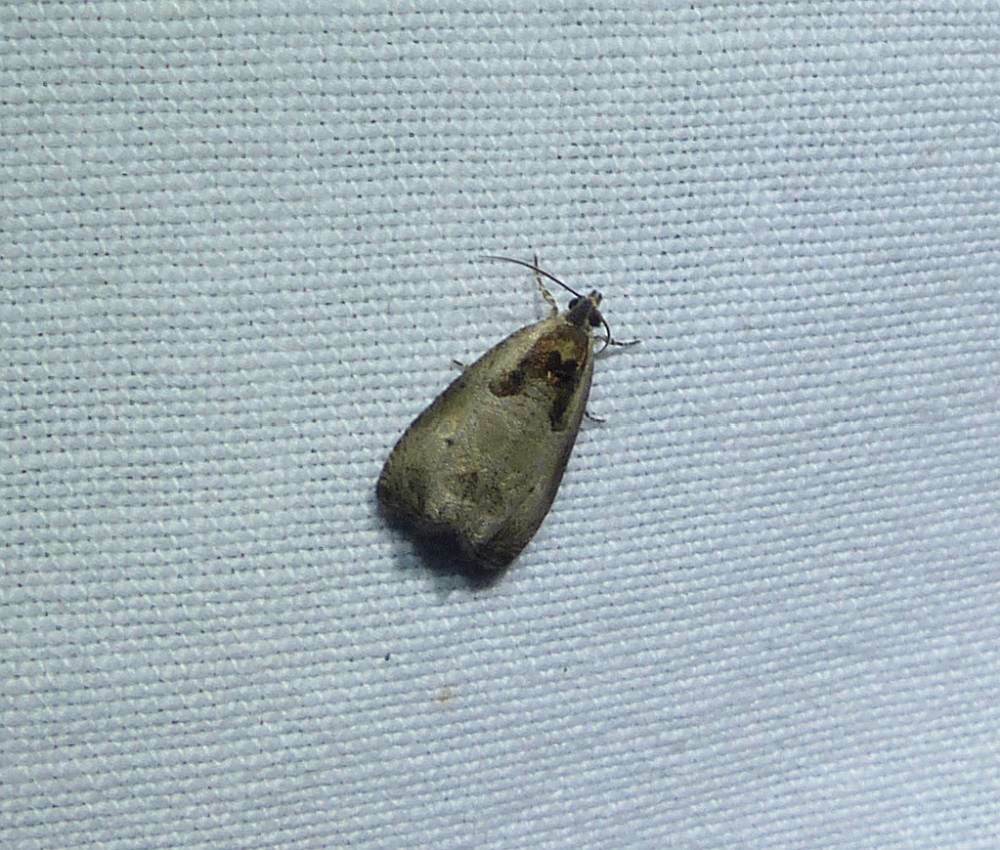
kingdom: Animalia
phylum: Arthropoda
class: Insecta
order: Lepidoptera
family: Tortricidae
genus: Olethreutes
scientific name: Olethreutes punctanum
